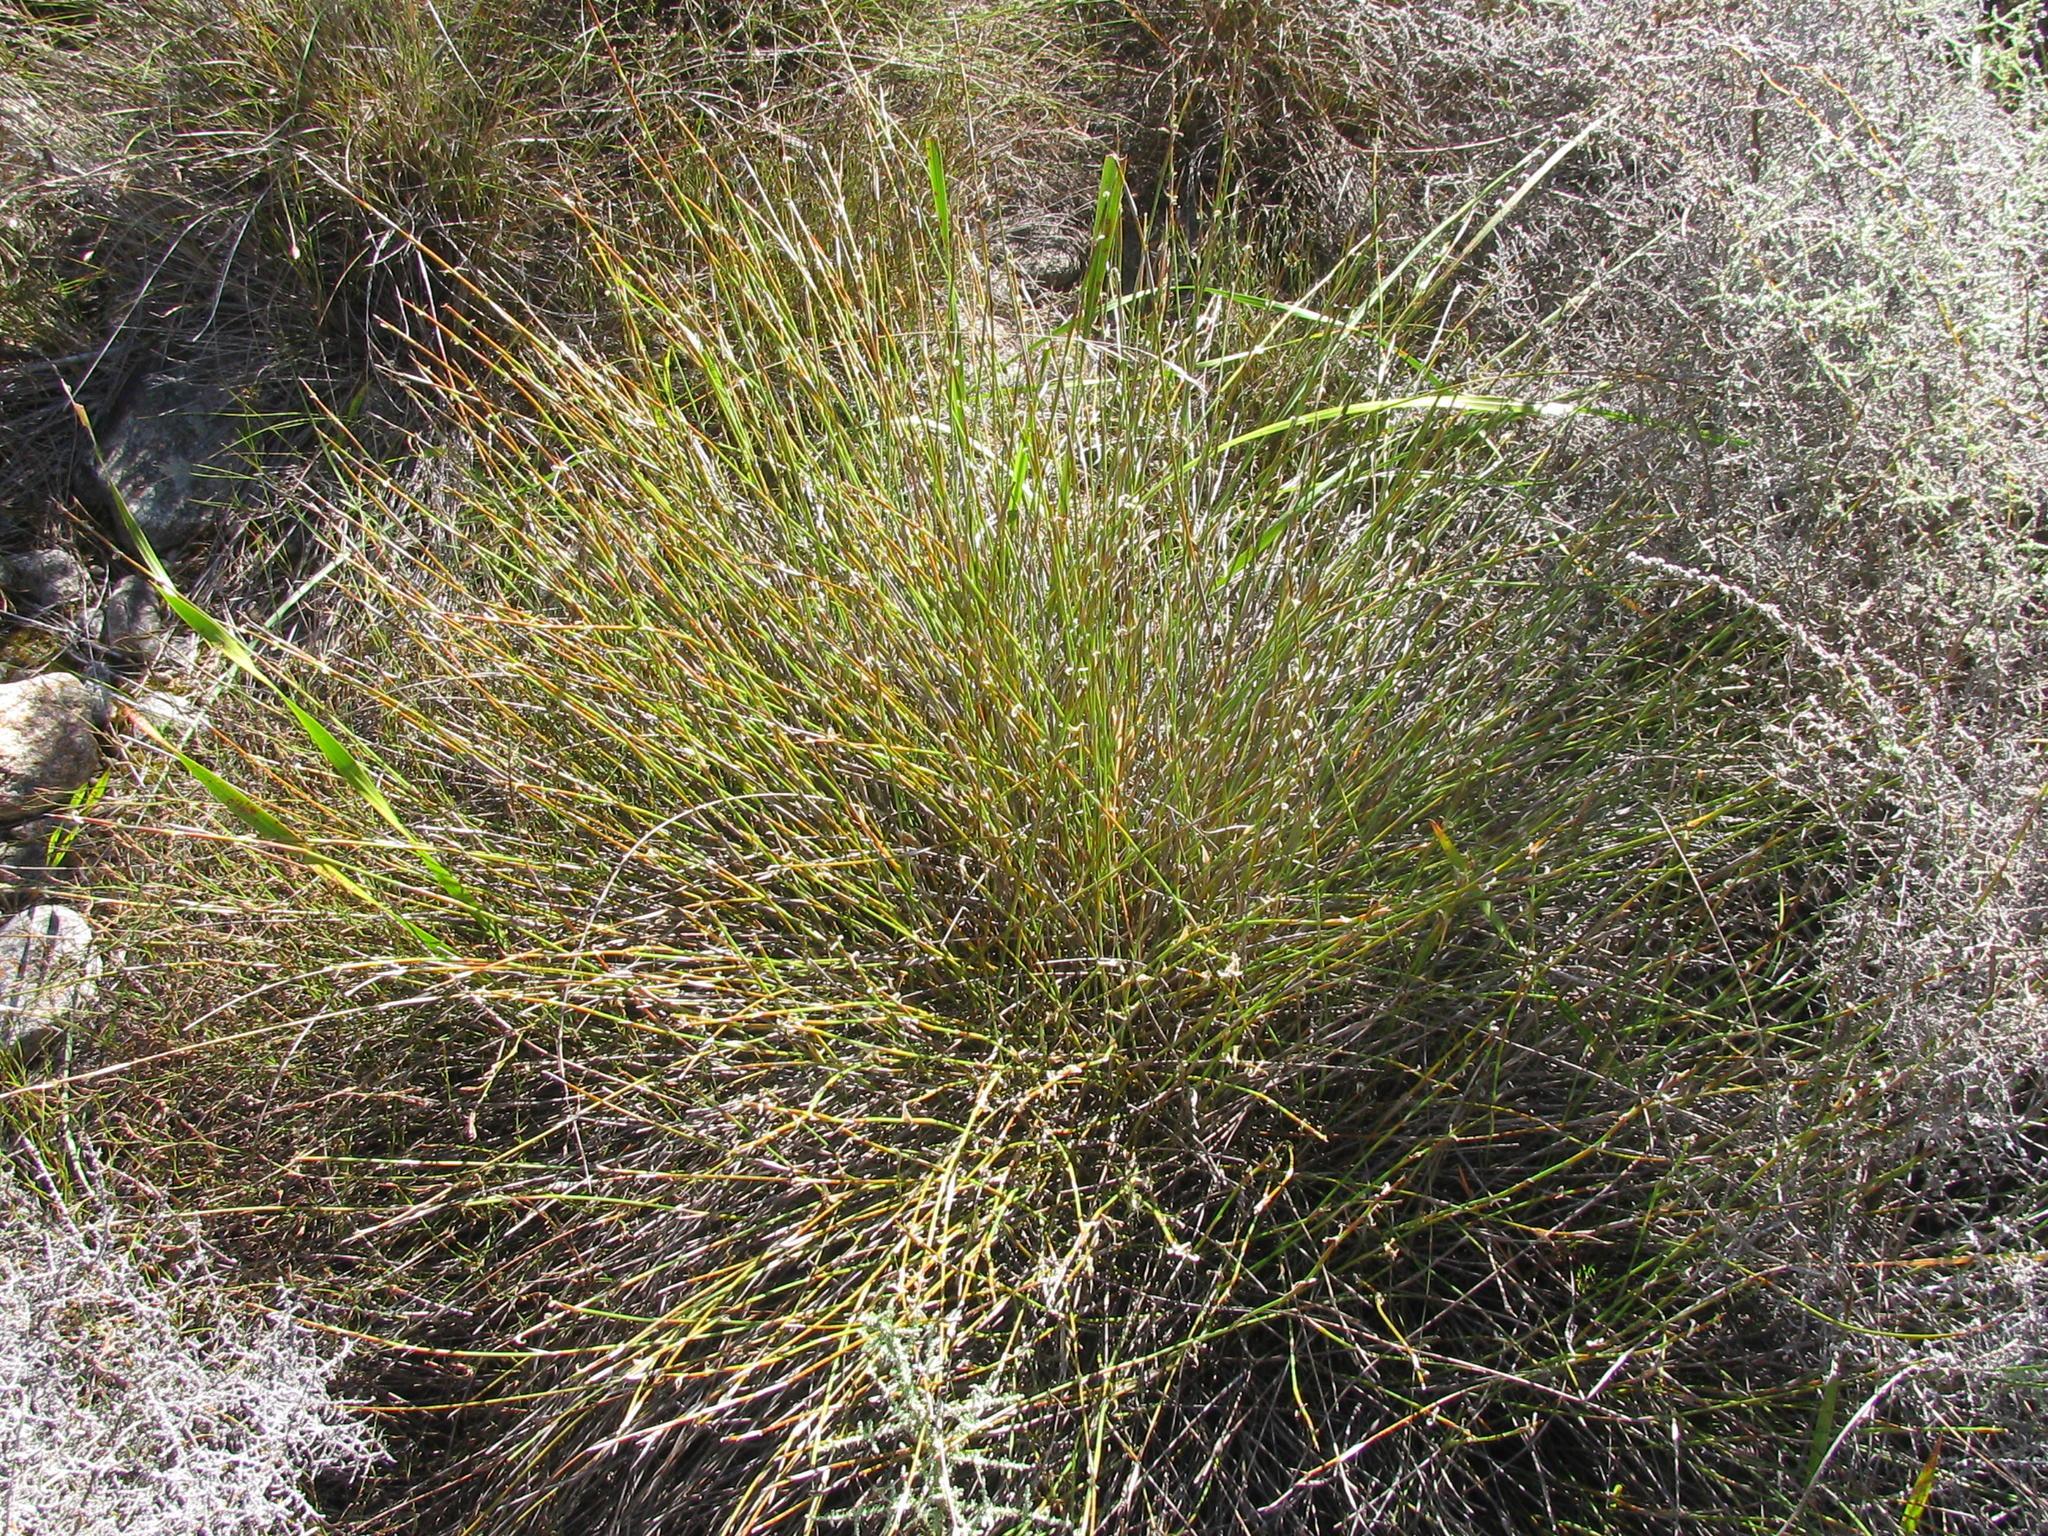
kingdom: Plantae
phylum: Tracheophyta
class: Liliopsida
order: Poales
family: Restionaceae
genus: Willdenowia
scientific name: Willdenowia humilis
